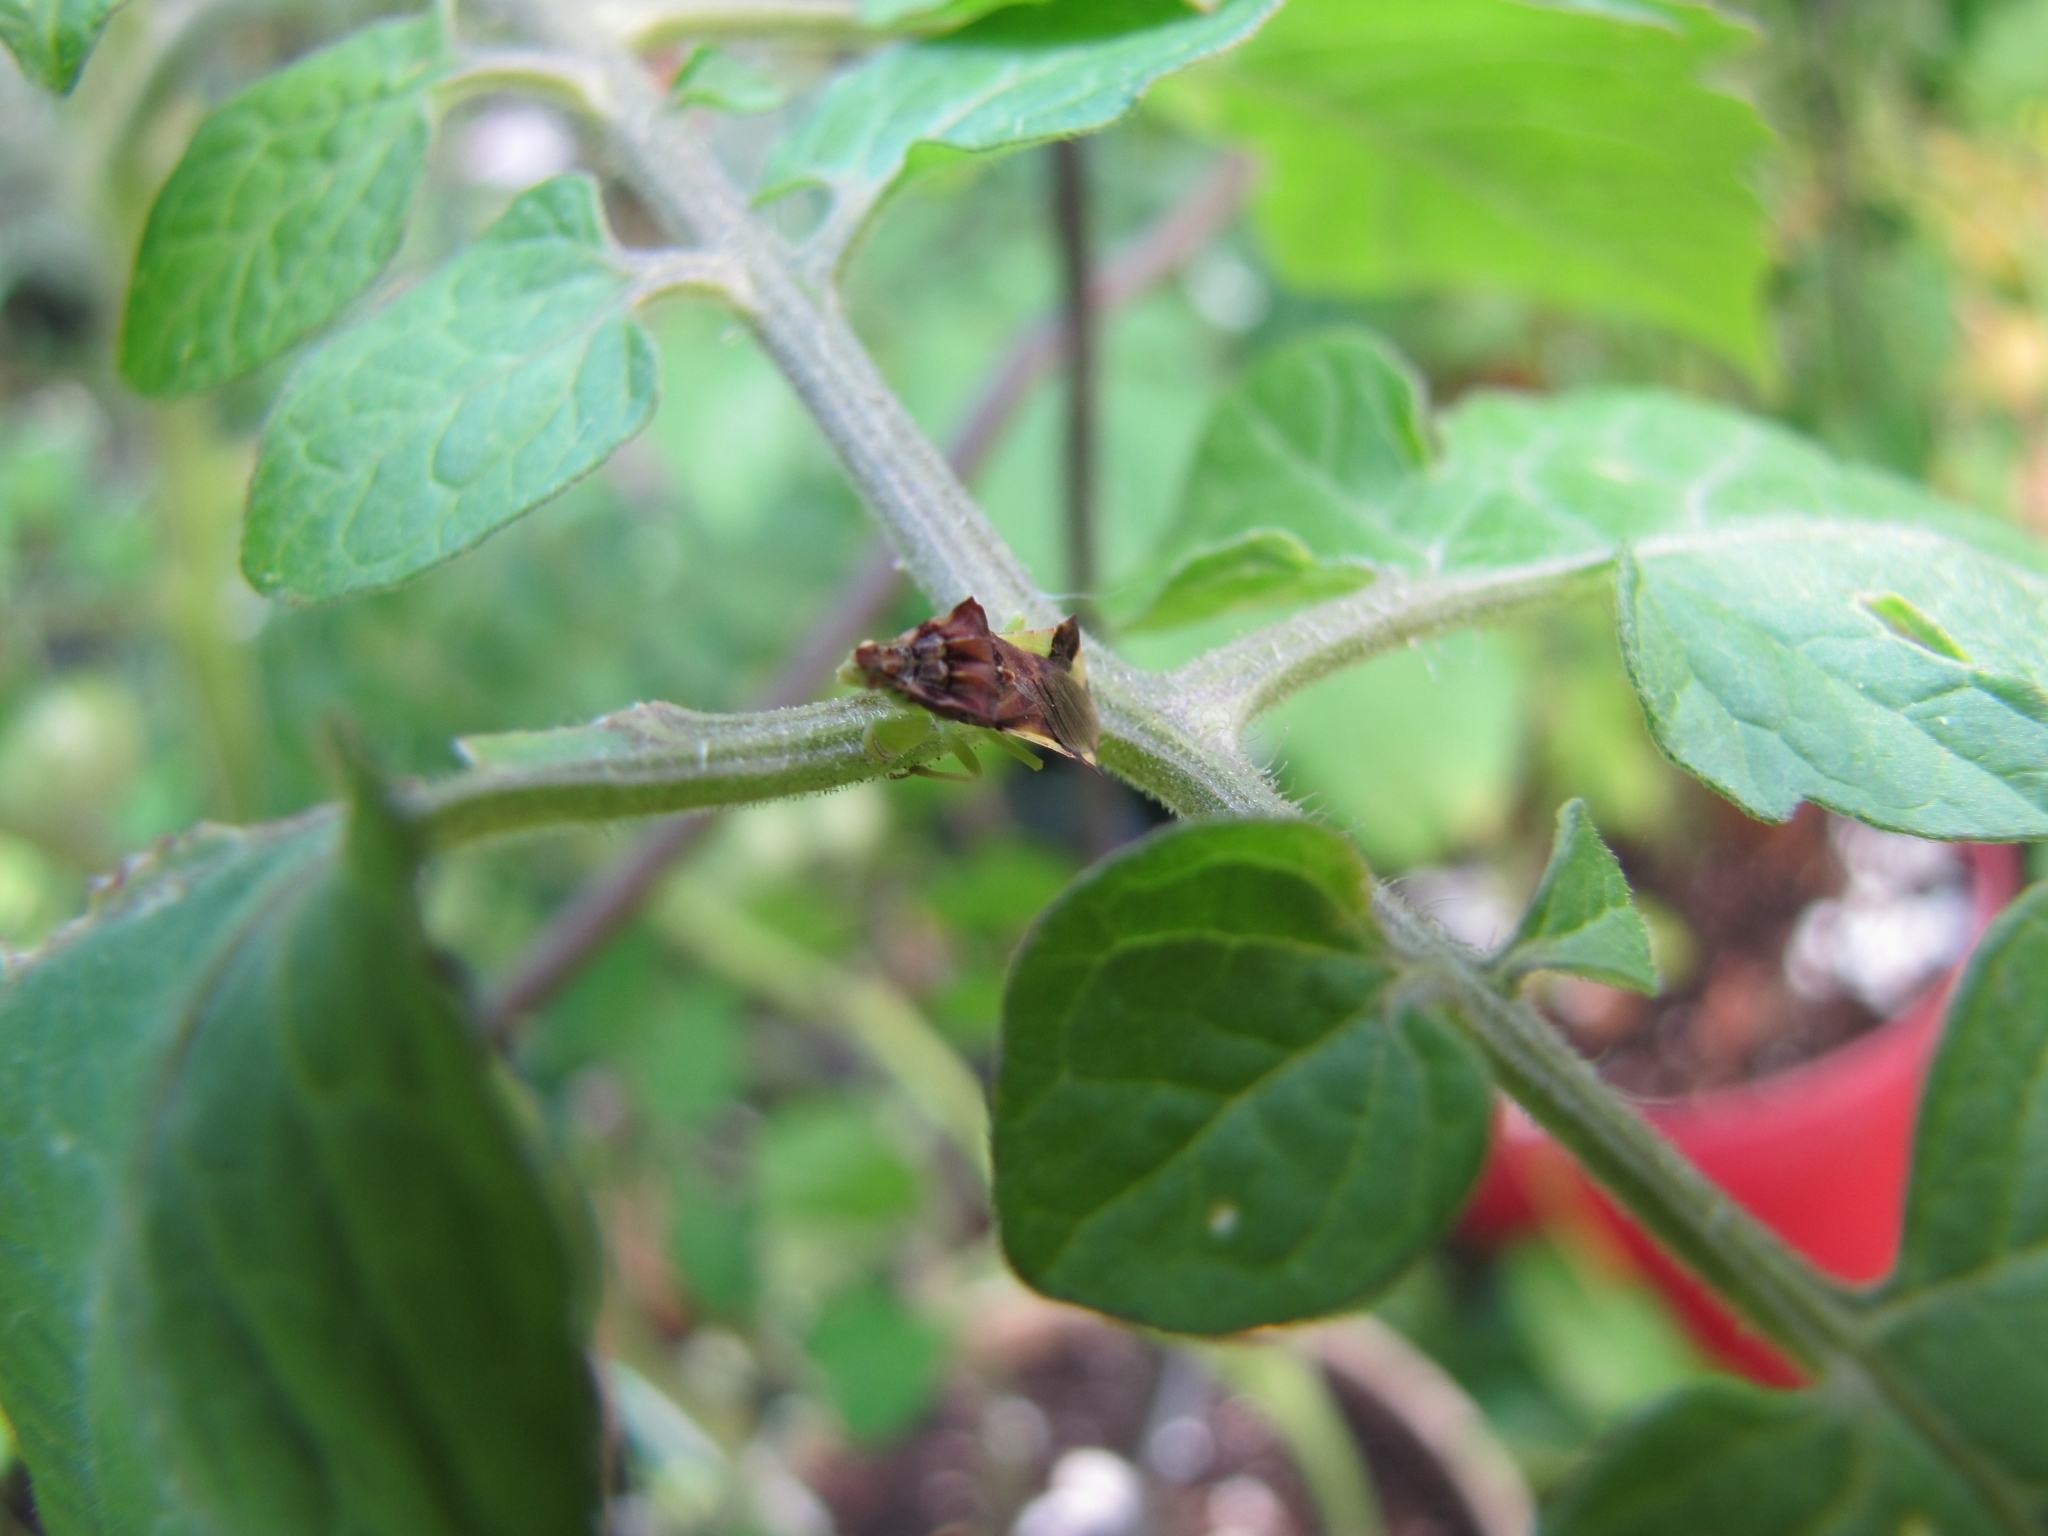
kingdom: Animalia
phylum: Arthropoda
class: Insecta
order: Hemiptera
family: Reduviidae
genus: Phymata
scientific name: Phymata pennsylvanica
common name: Pennsylvania ambush bug
